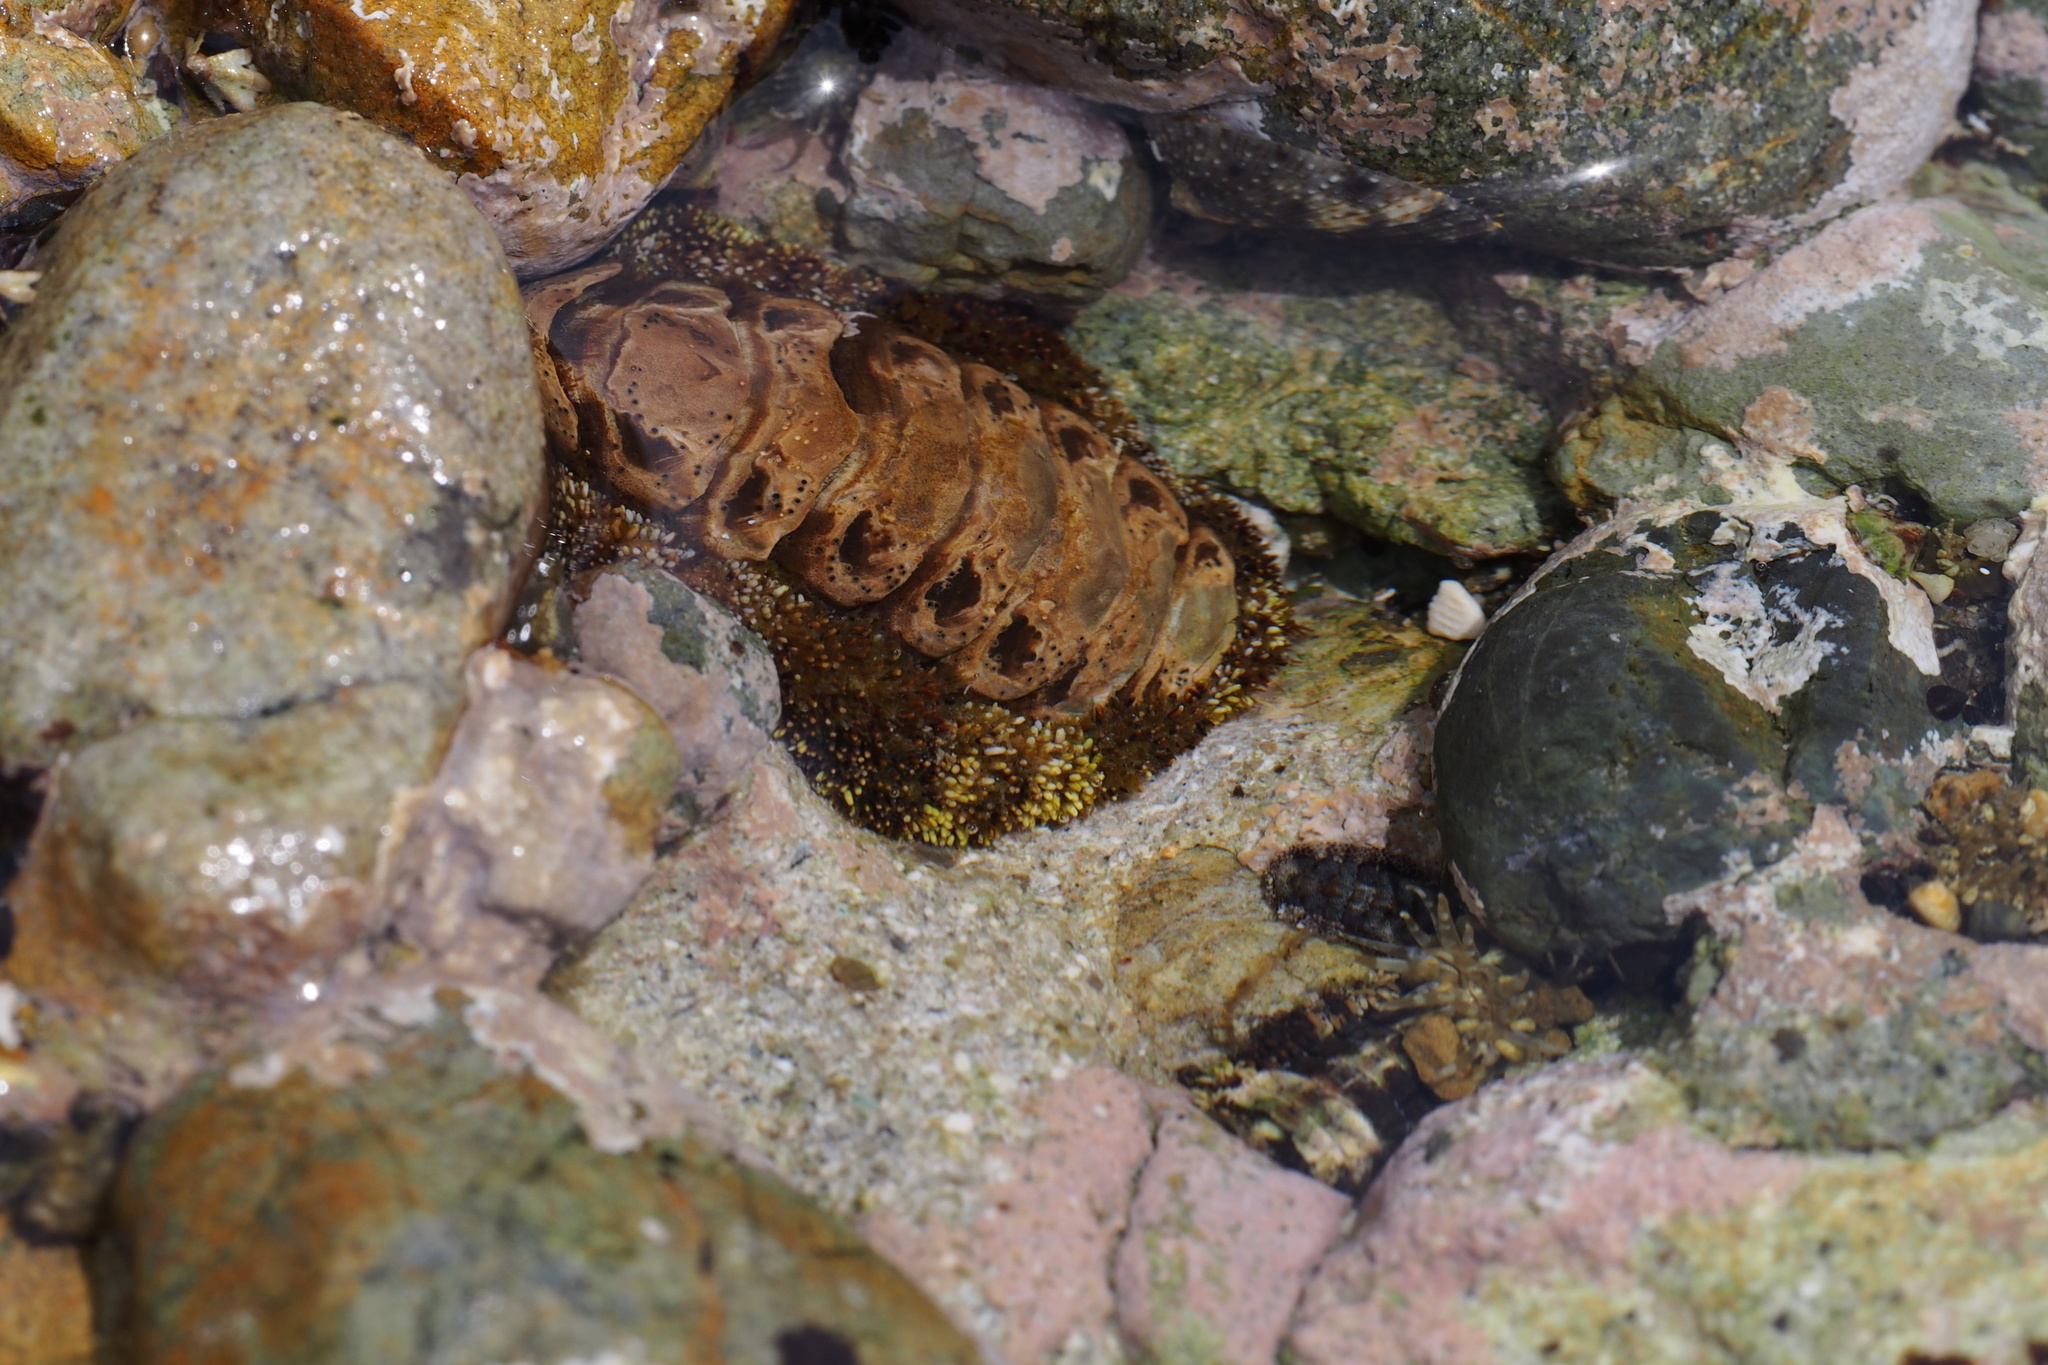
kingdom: Animalia
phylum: Mollusca
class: Polyplacophora
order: Chitonida
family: Chitonidae
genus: Liolophura
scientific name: Liolophura japonica
